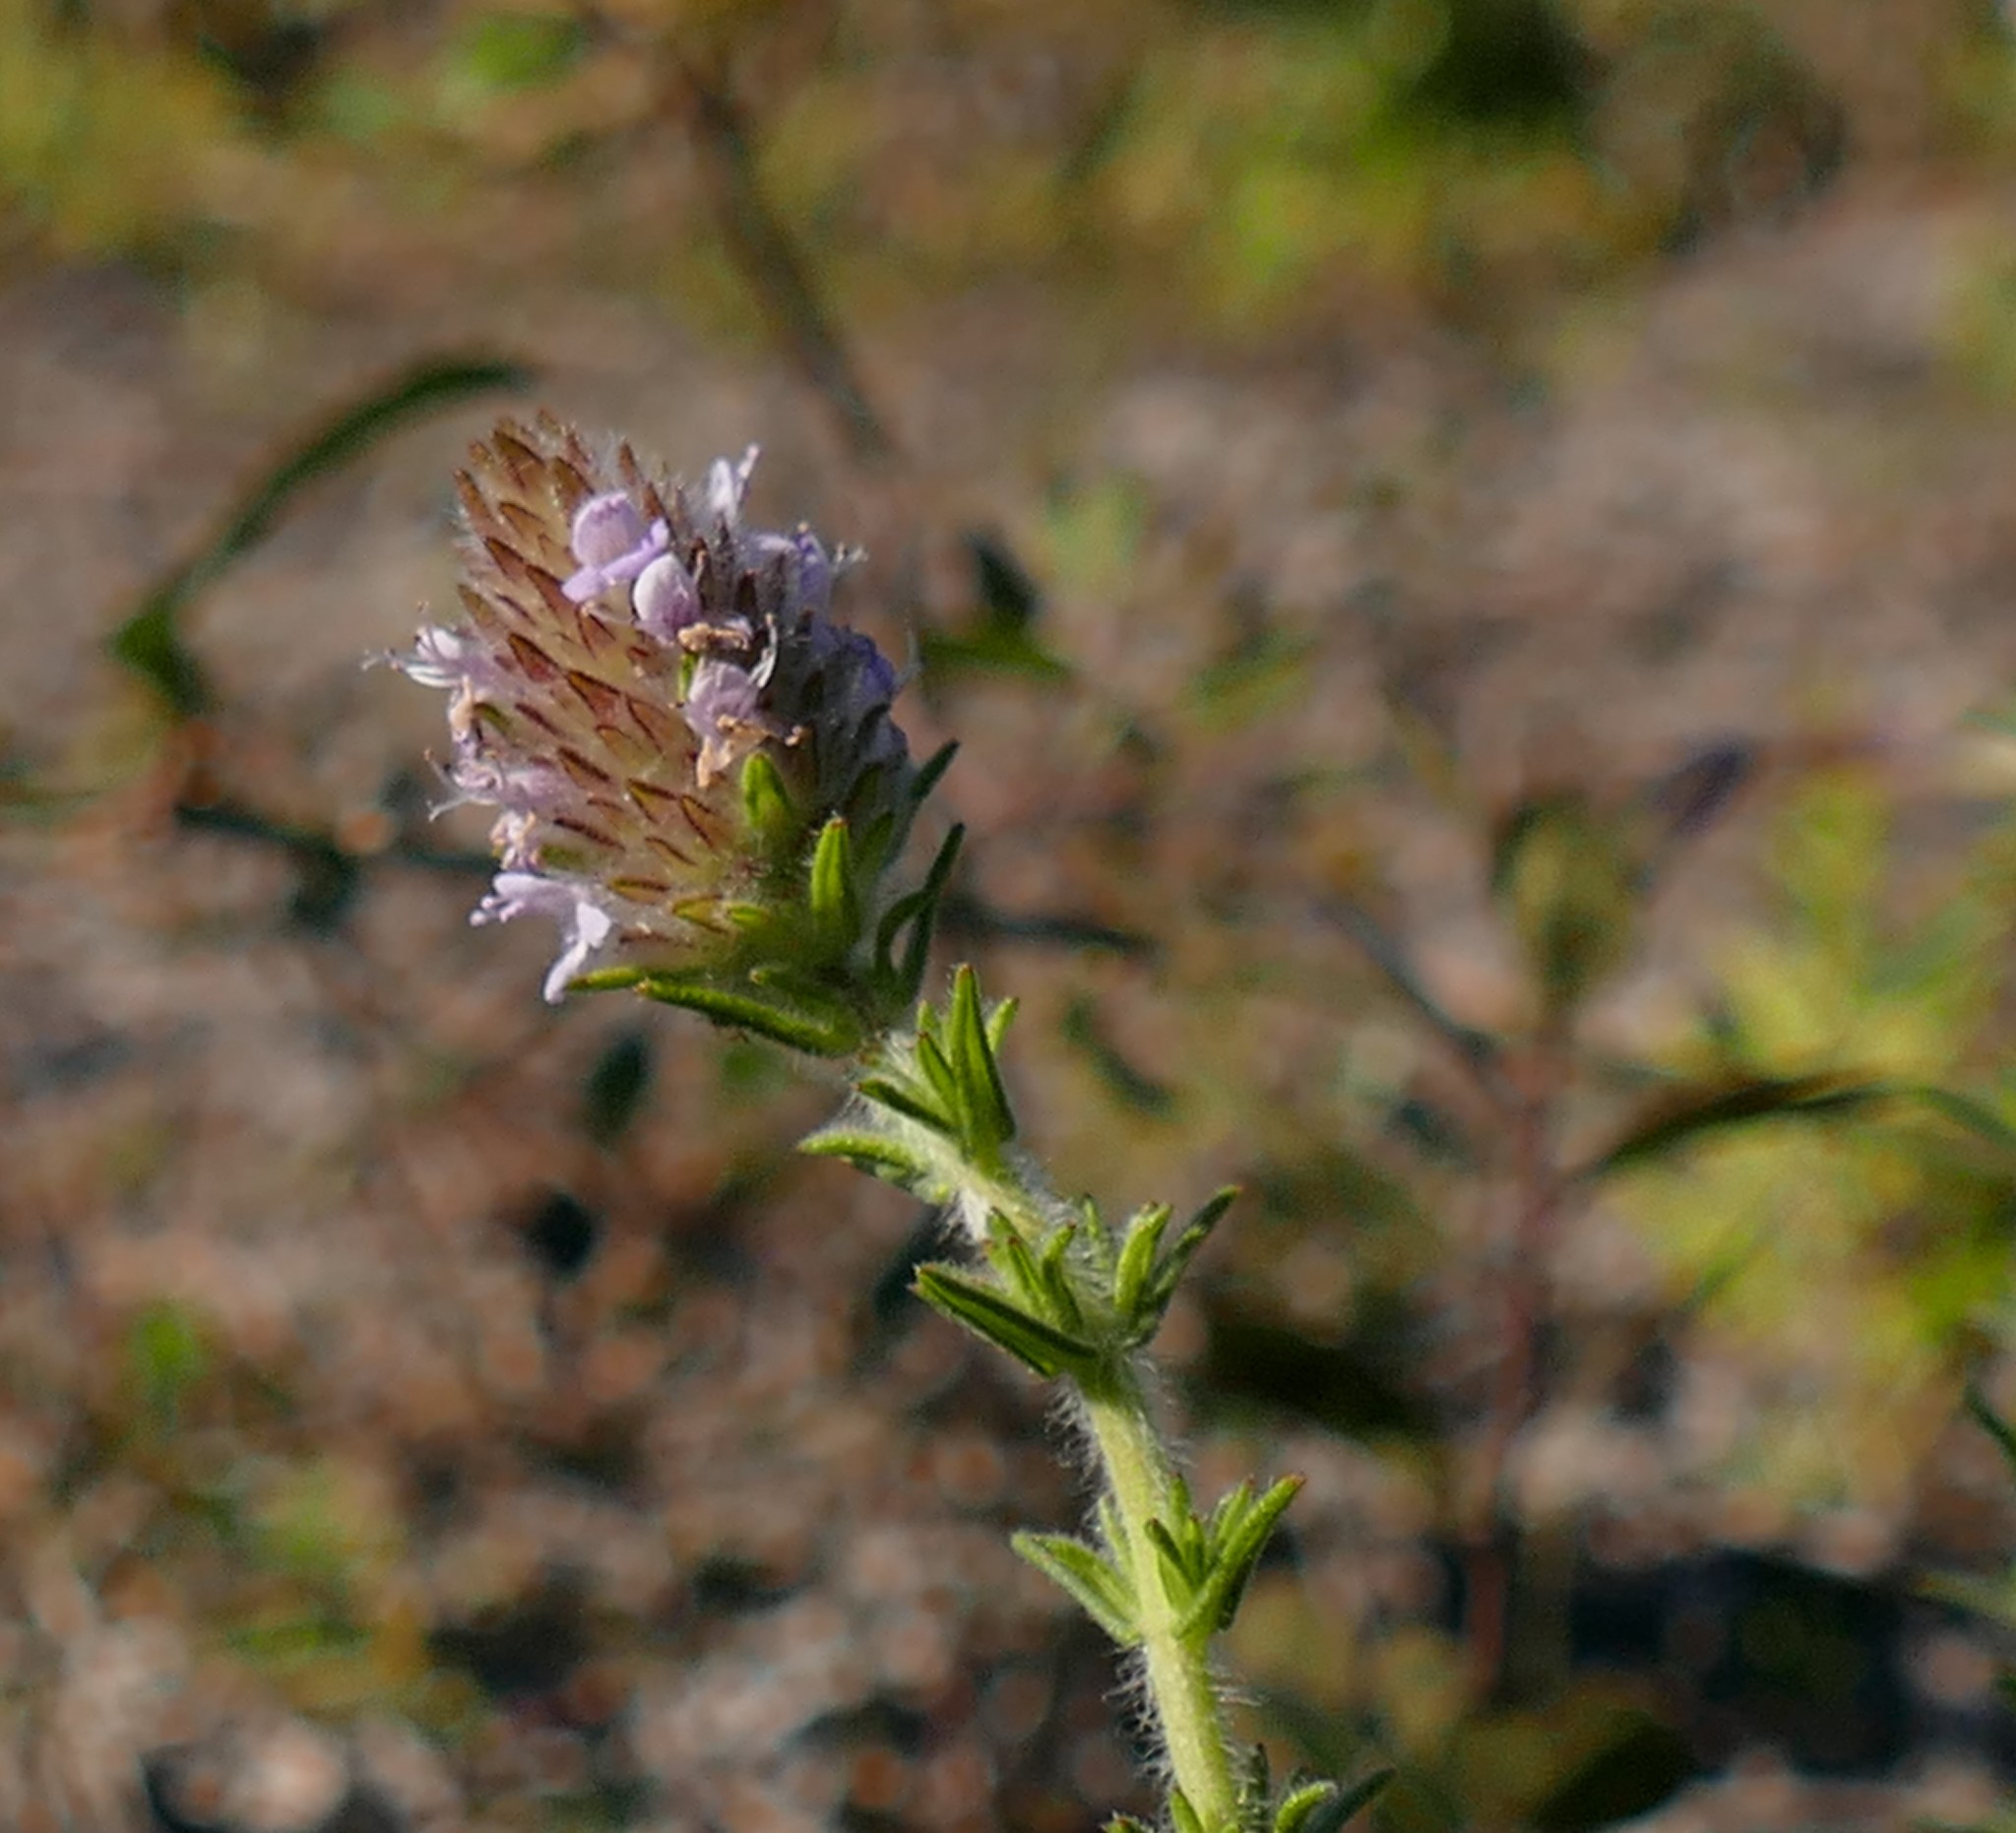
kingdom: Plantae
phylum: Tracheophyta
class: Magnoliopsida
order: Lamiales
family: Lamiaceae
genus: Piloblephis
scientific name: Piloblephis rigida
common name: Wild pennyroyal
